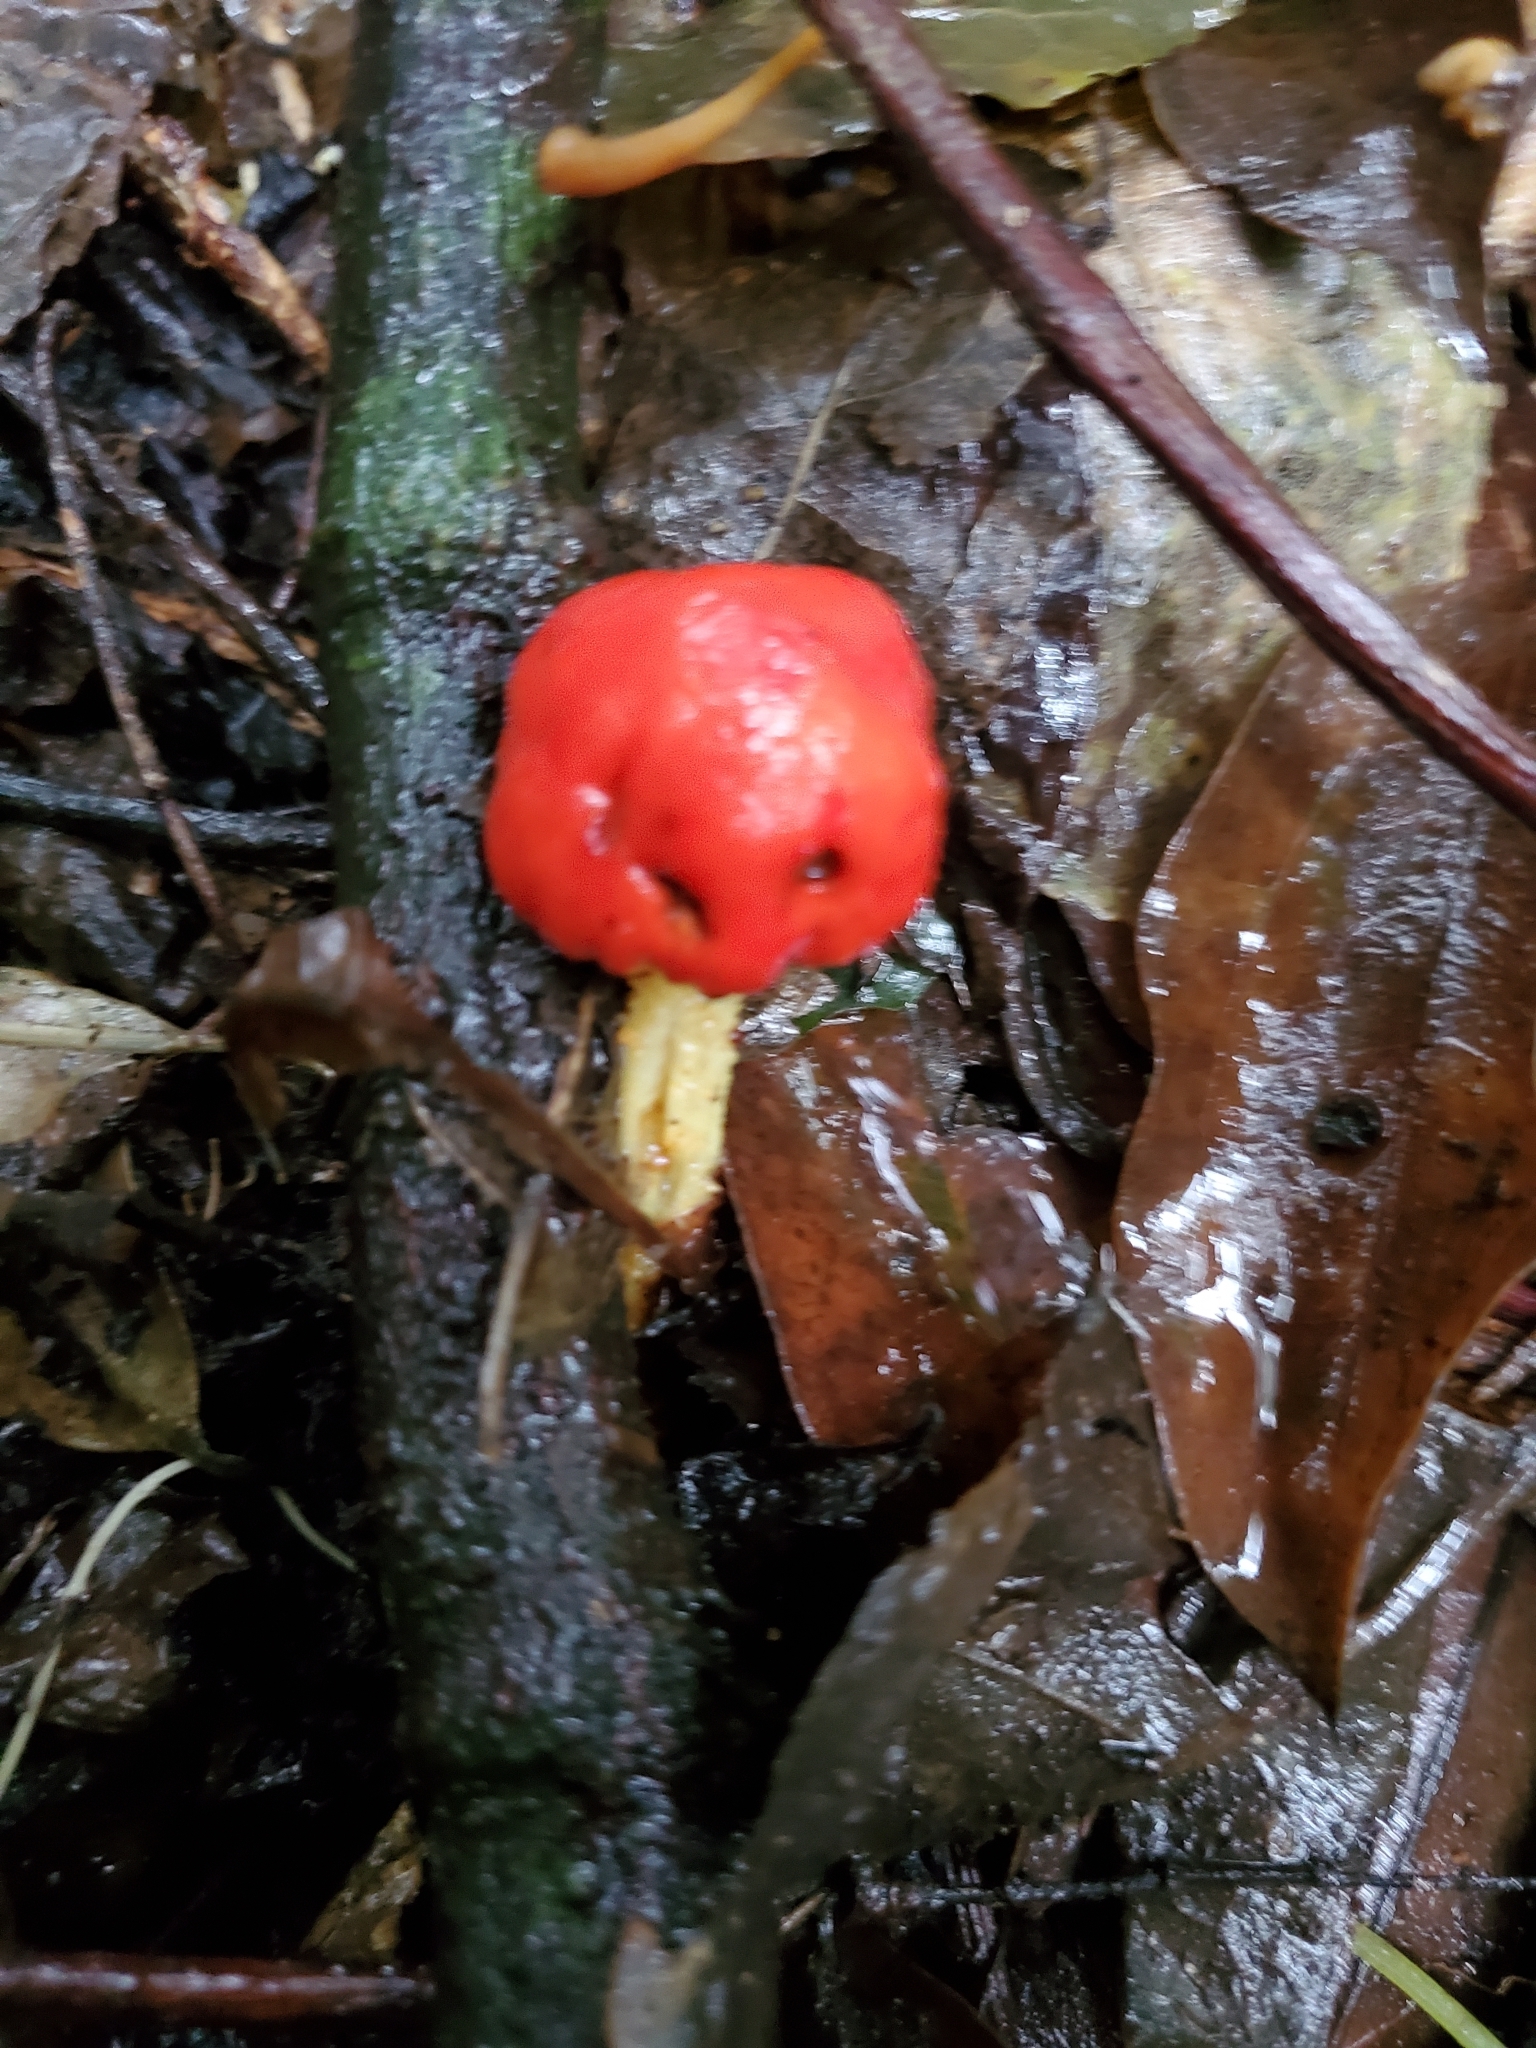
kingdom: Fungi
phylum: Basidiomycota
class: Agaricomycetes
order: Agaricales
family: Strophariaceae
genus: Leratiomyces
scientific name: Leratiomyces erythrocephalus
